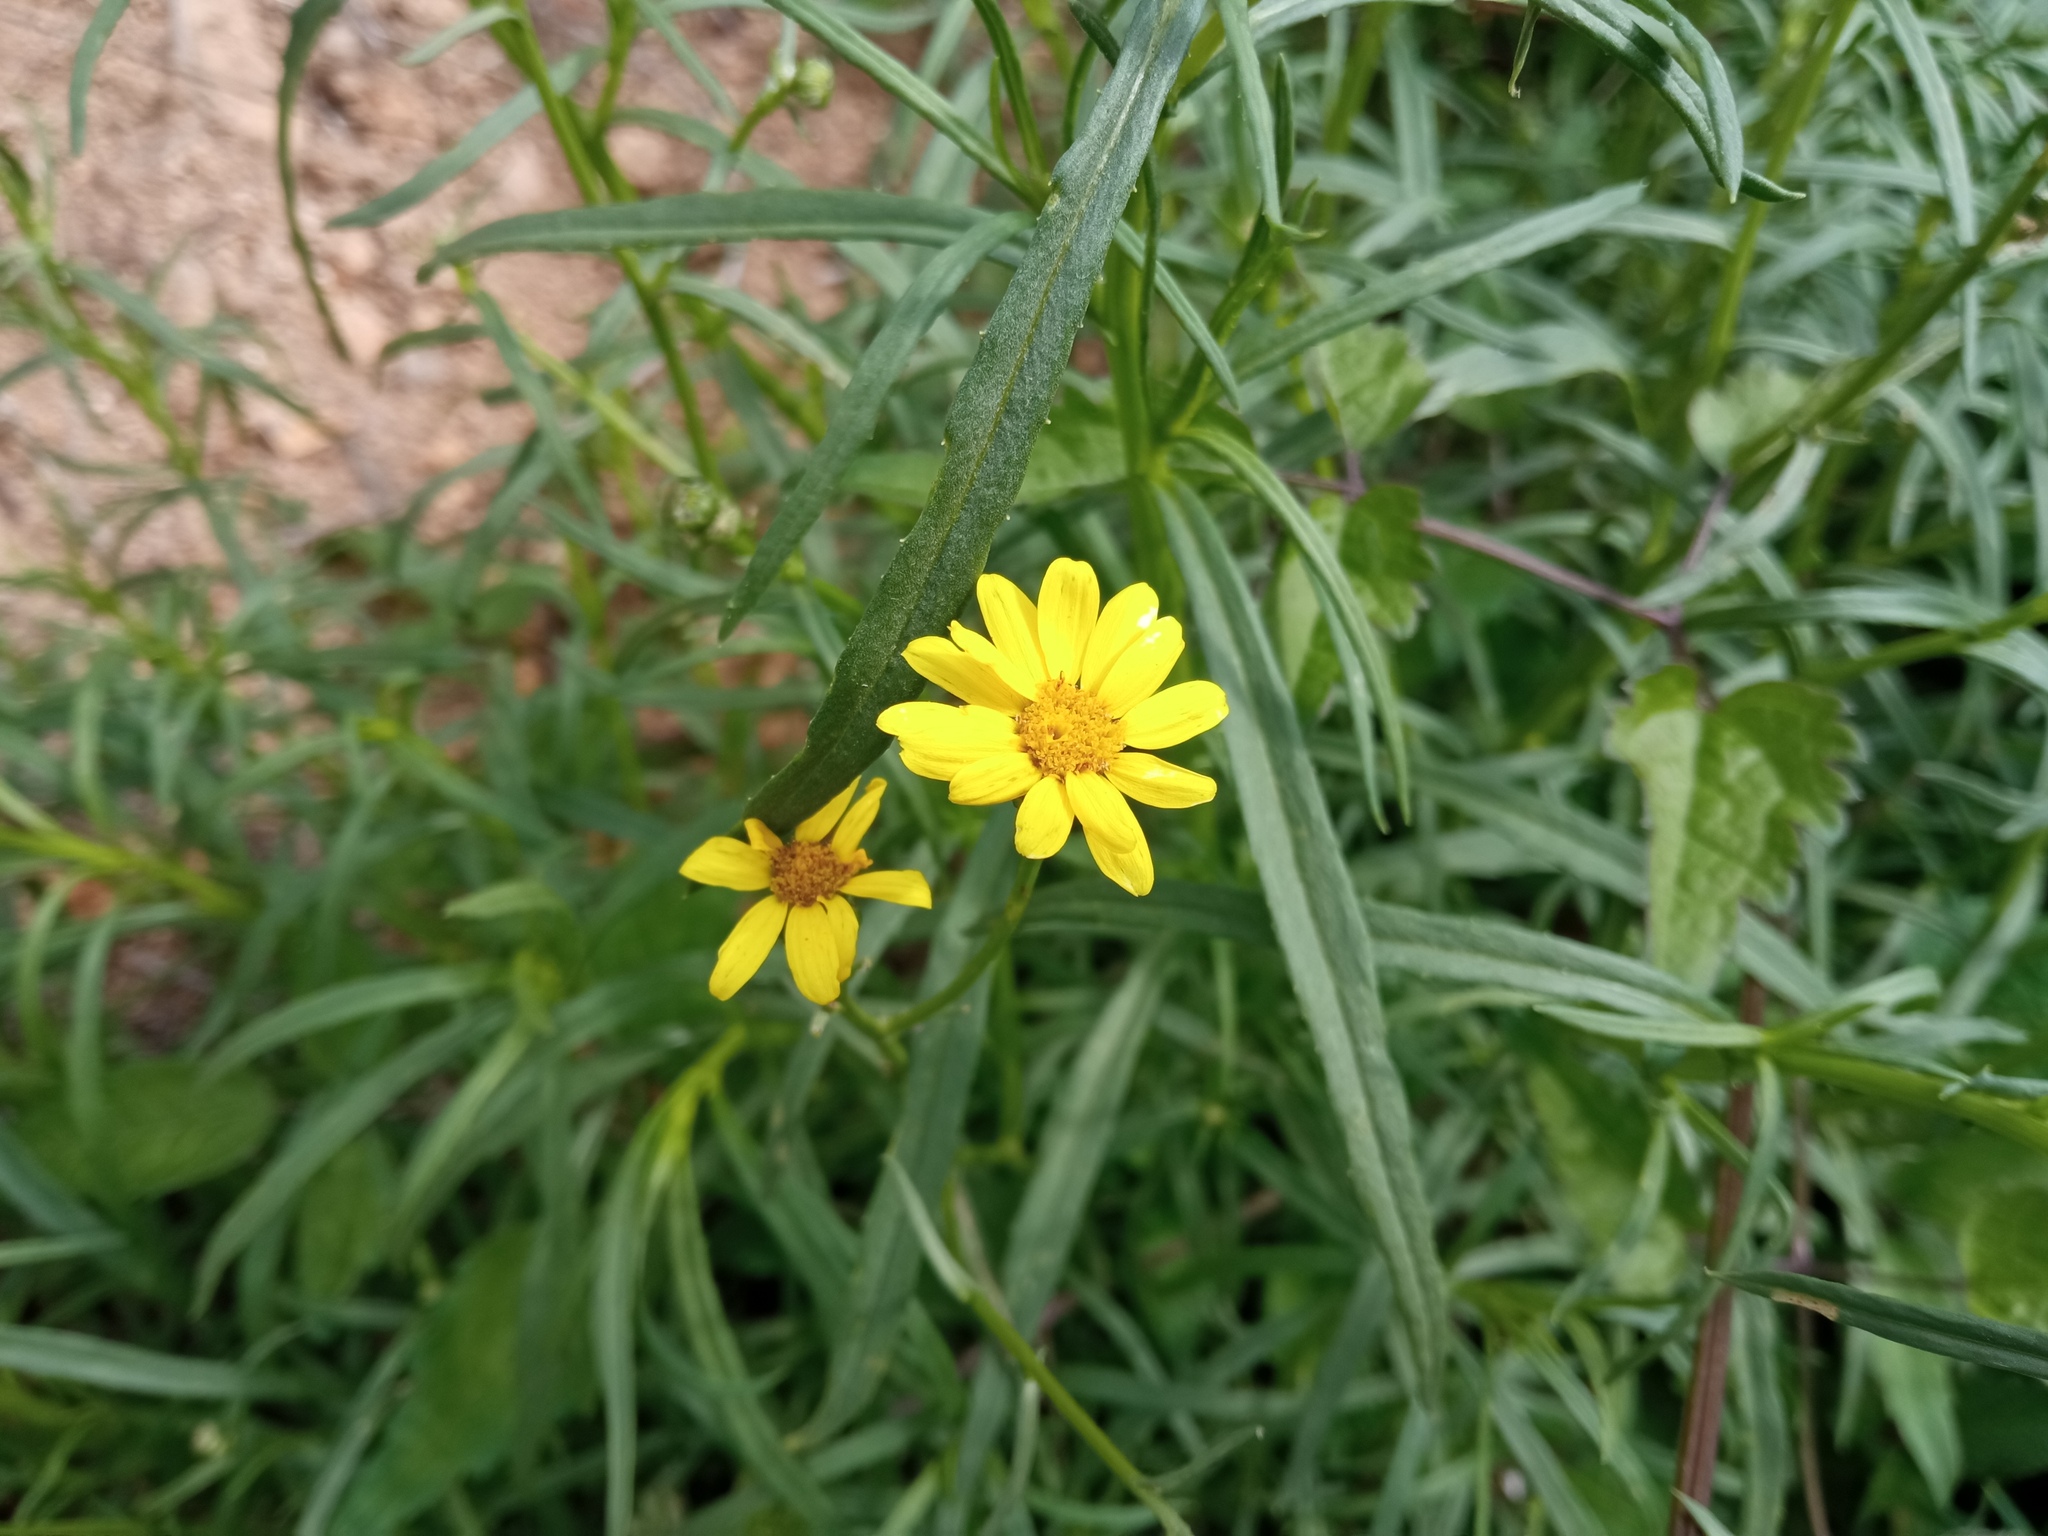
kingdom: Plantae
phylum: Tracheophyta
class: Magnoliopsida
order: Asterales
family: Asteraceae
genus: Senecio
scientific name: Senecio inaequidens
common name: Narrow-leaved ragwort
